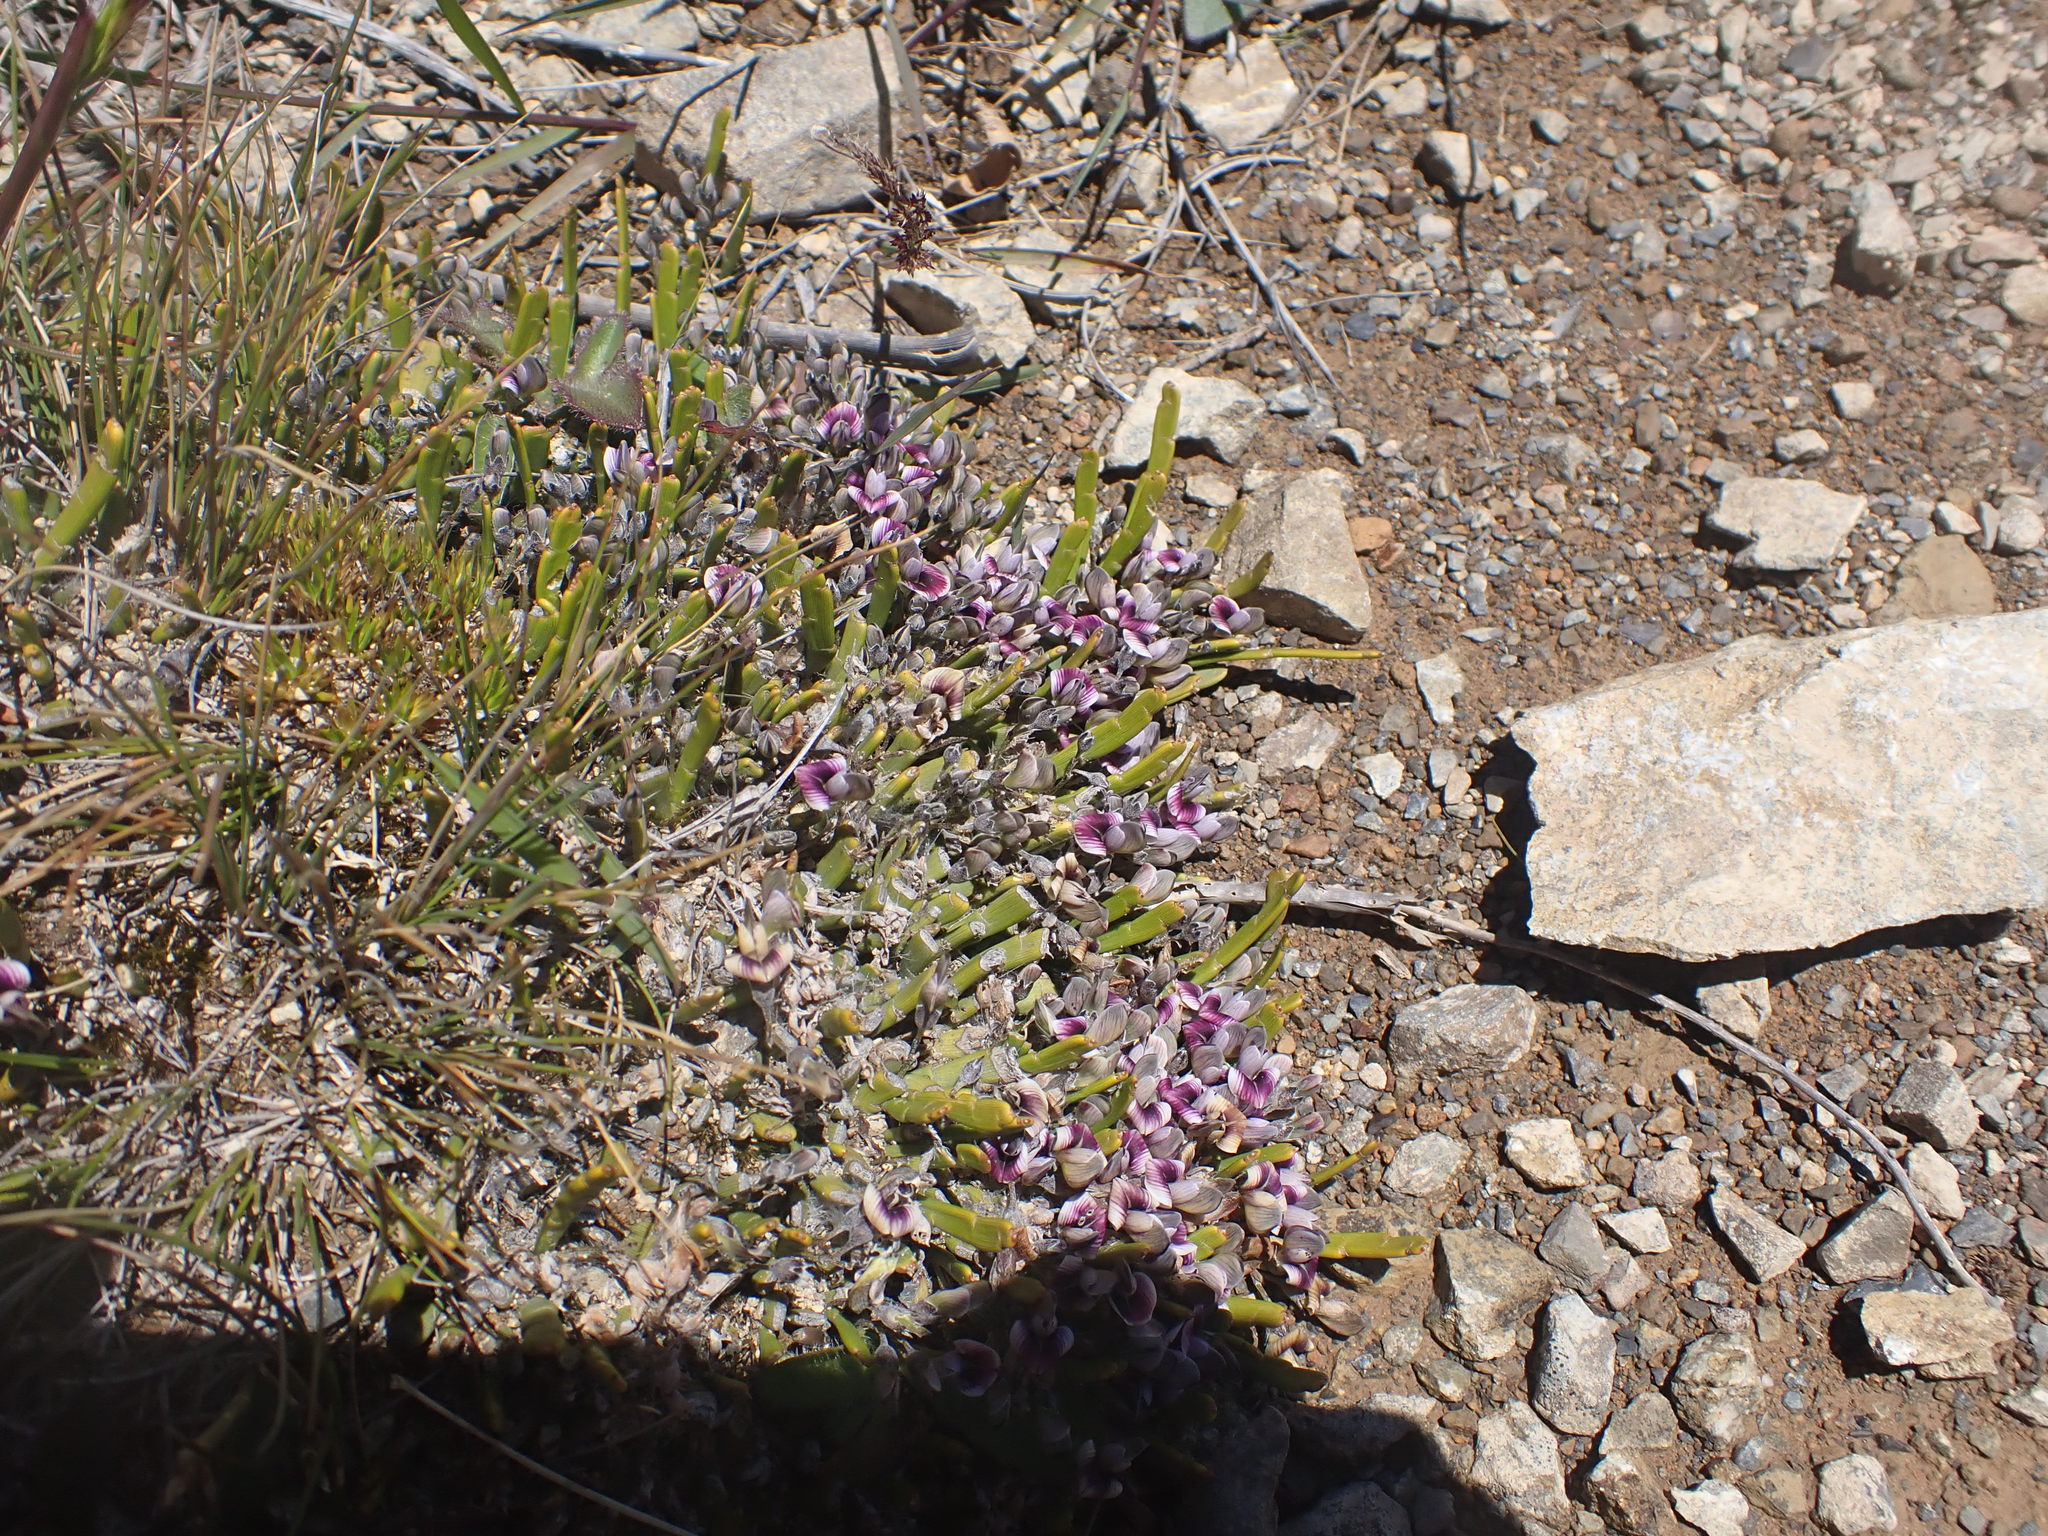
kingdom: Plantae
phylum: Tracheophyta
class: Magnoliopsida
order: Fabales
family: Fabaceae
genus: Carmichaelia
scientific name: Carmichaelia monroi
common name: Stout dwarf broom
